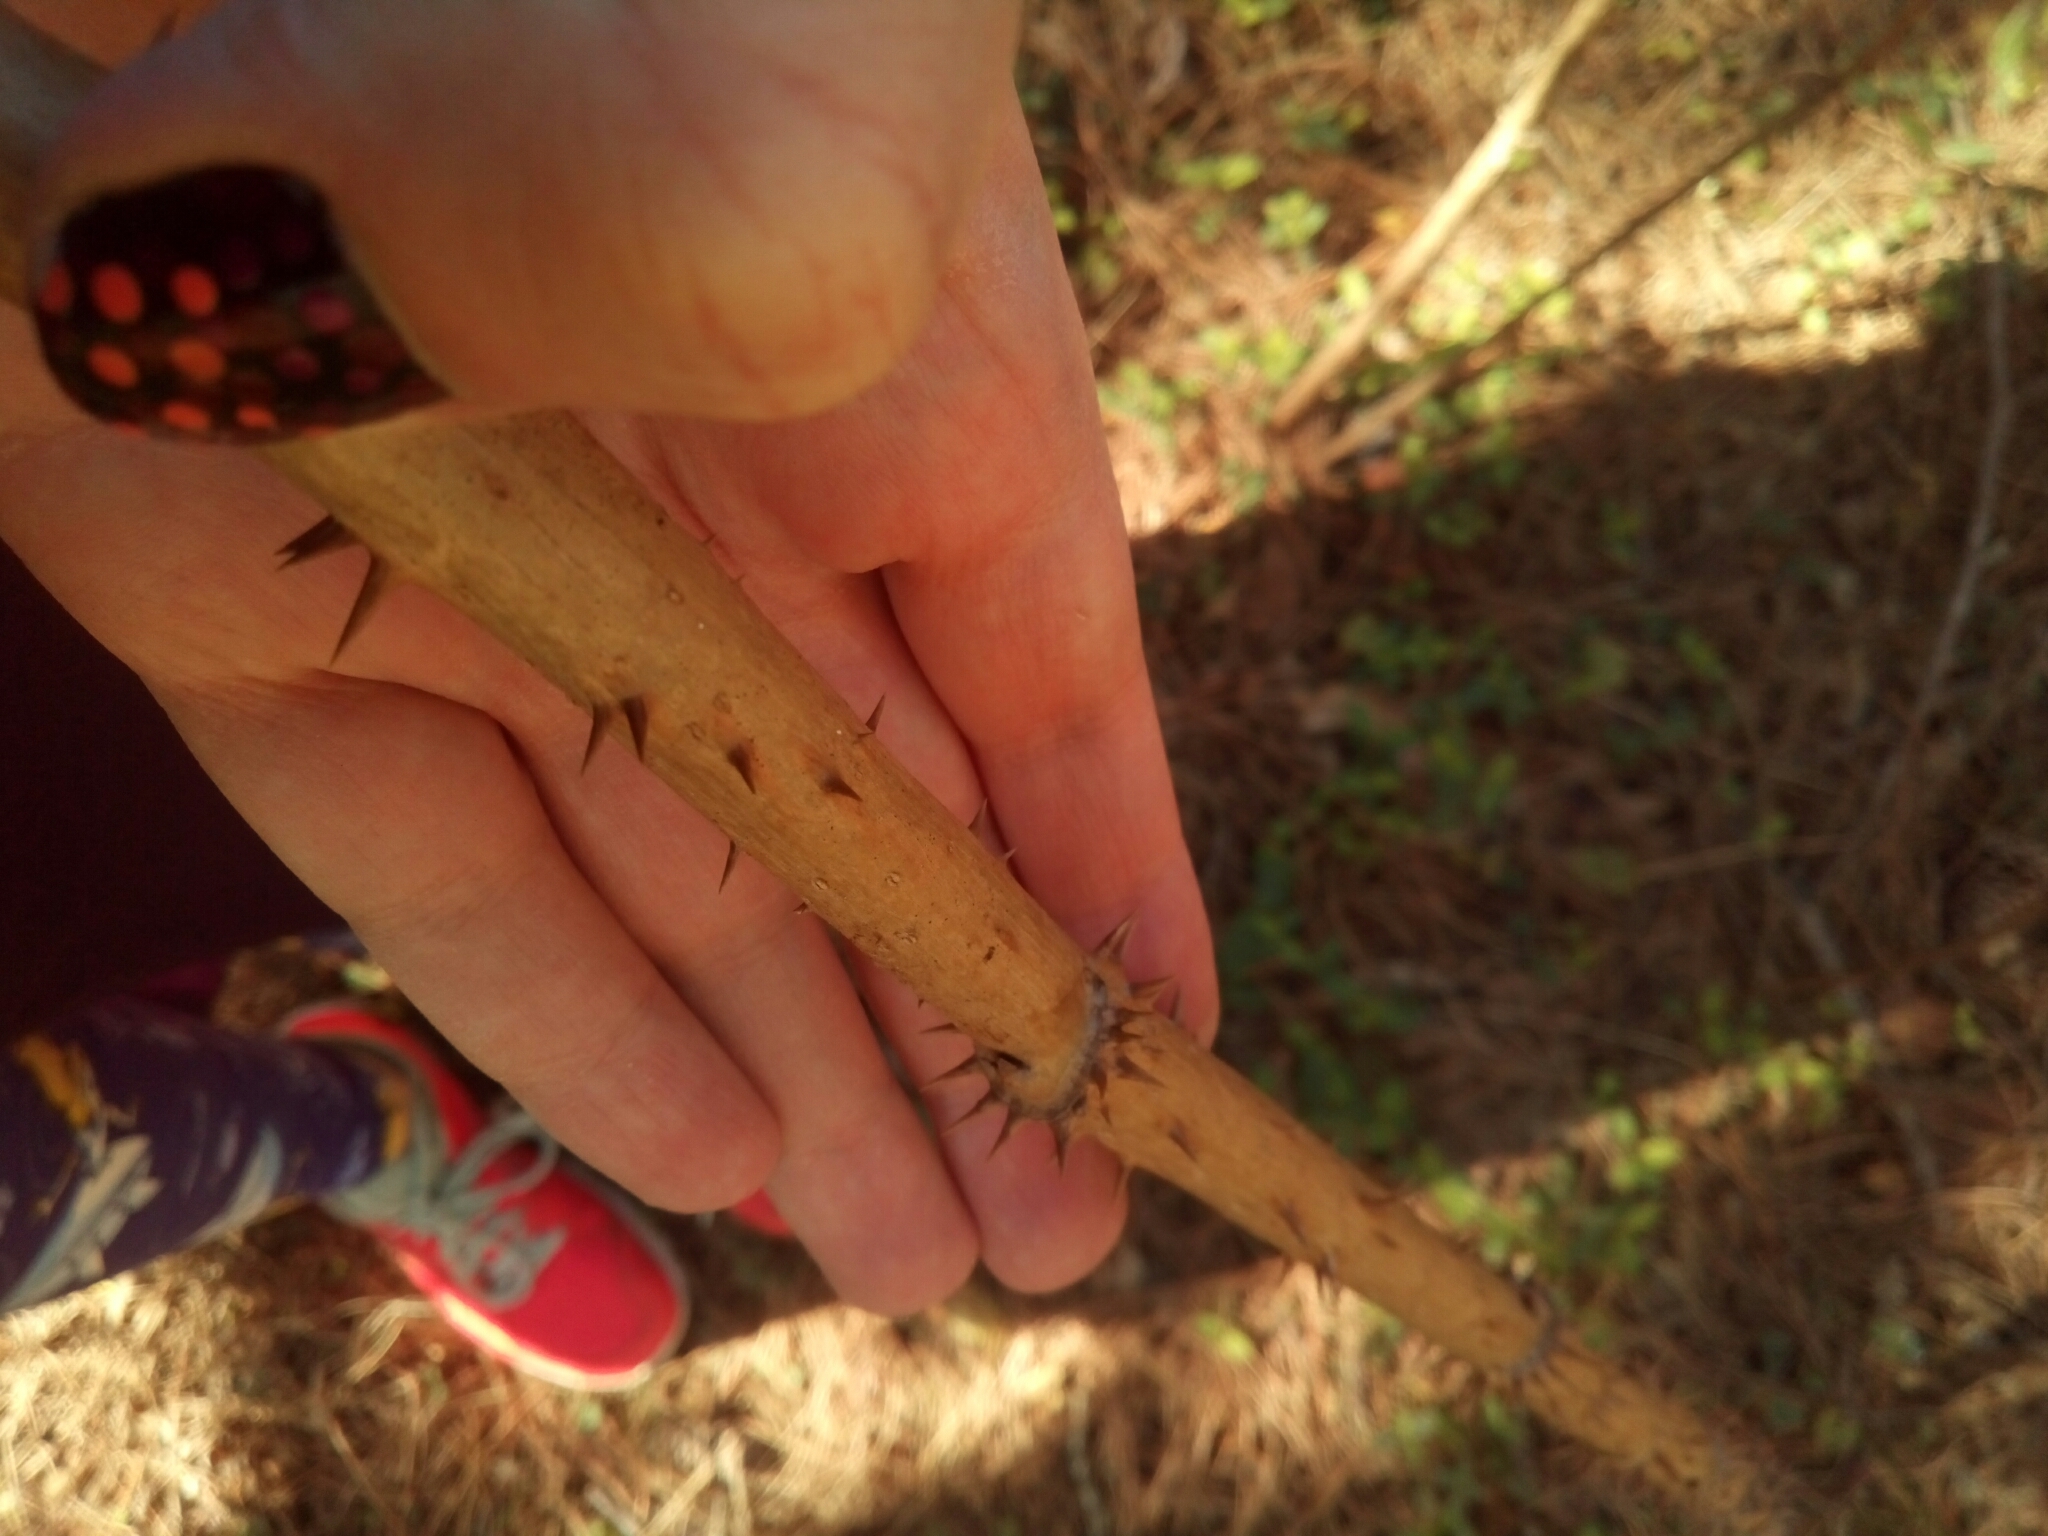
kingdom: Plantae
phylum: Tracheophyta
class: Magnoliopsida
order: Apiales
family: Araliaceae
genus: Aralia
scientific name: Aralia spinosa
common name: Hercules'-club
